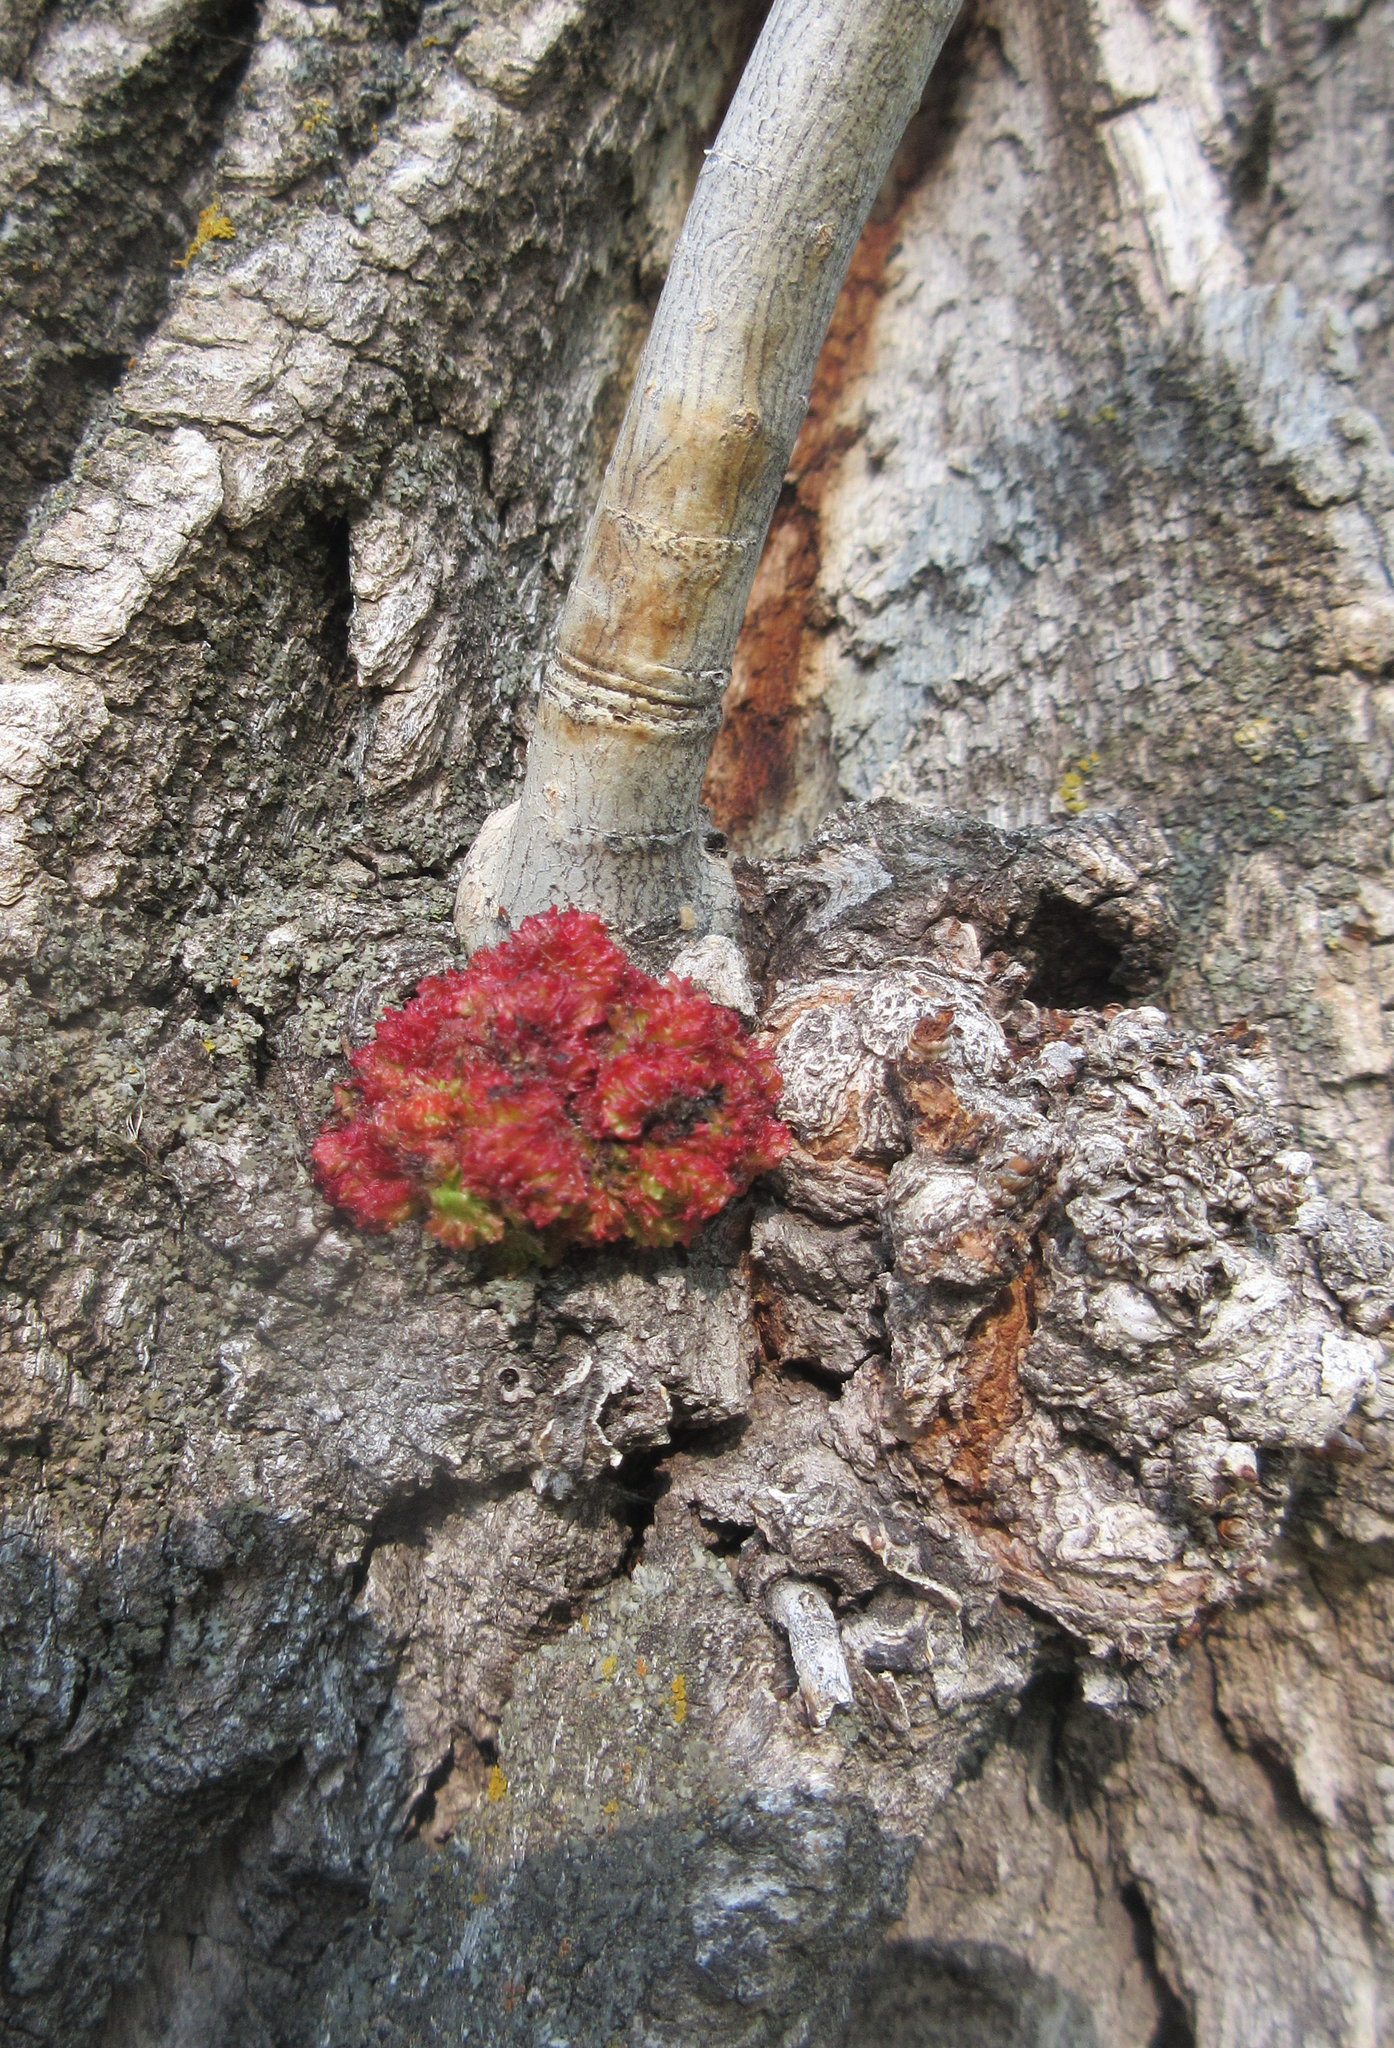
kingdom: Animalia
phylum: Arthropoda
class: Arachnida
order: Trombidiformes
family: Eriophyidae
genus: Aceria
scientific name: Aceria
